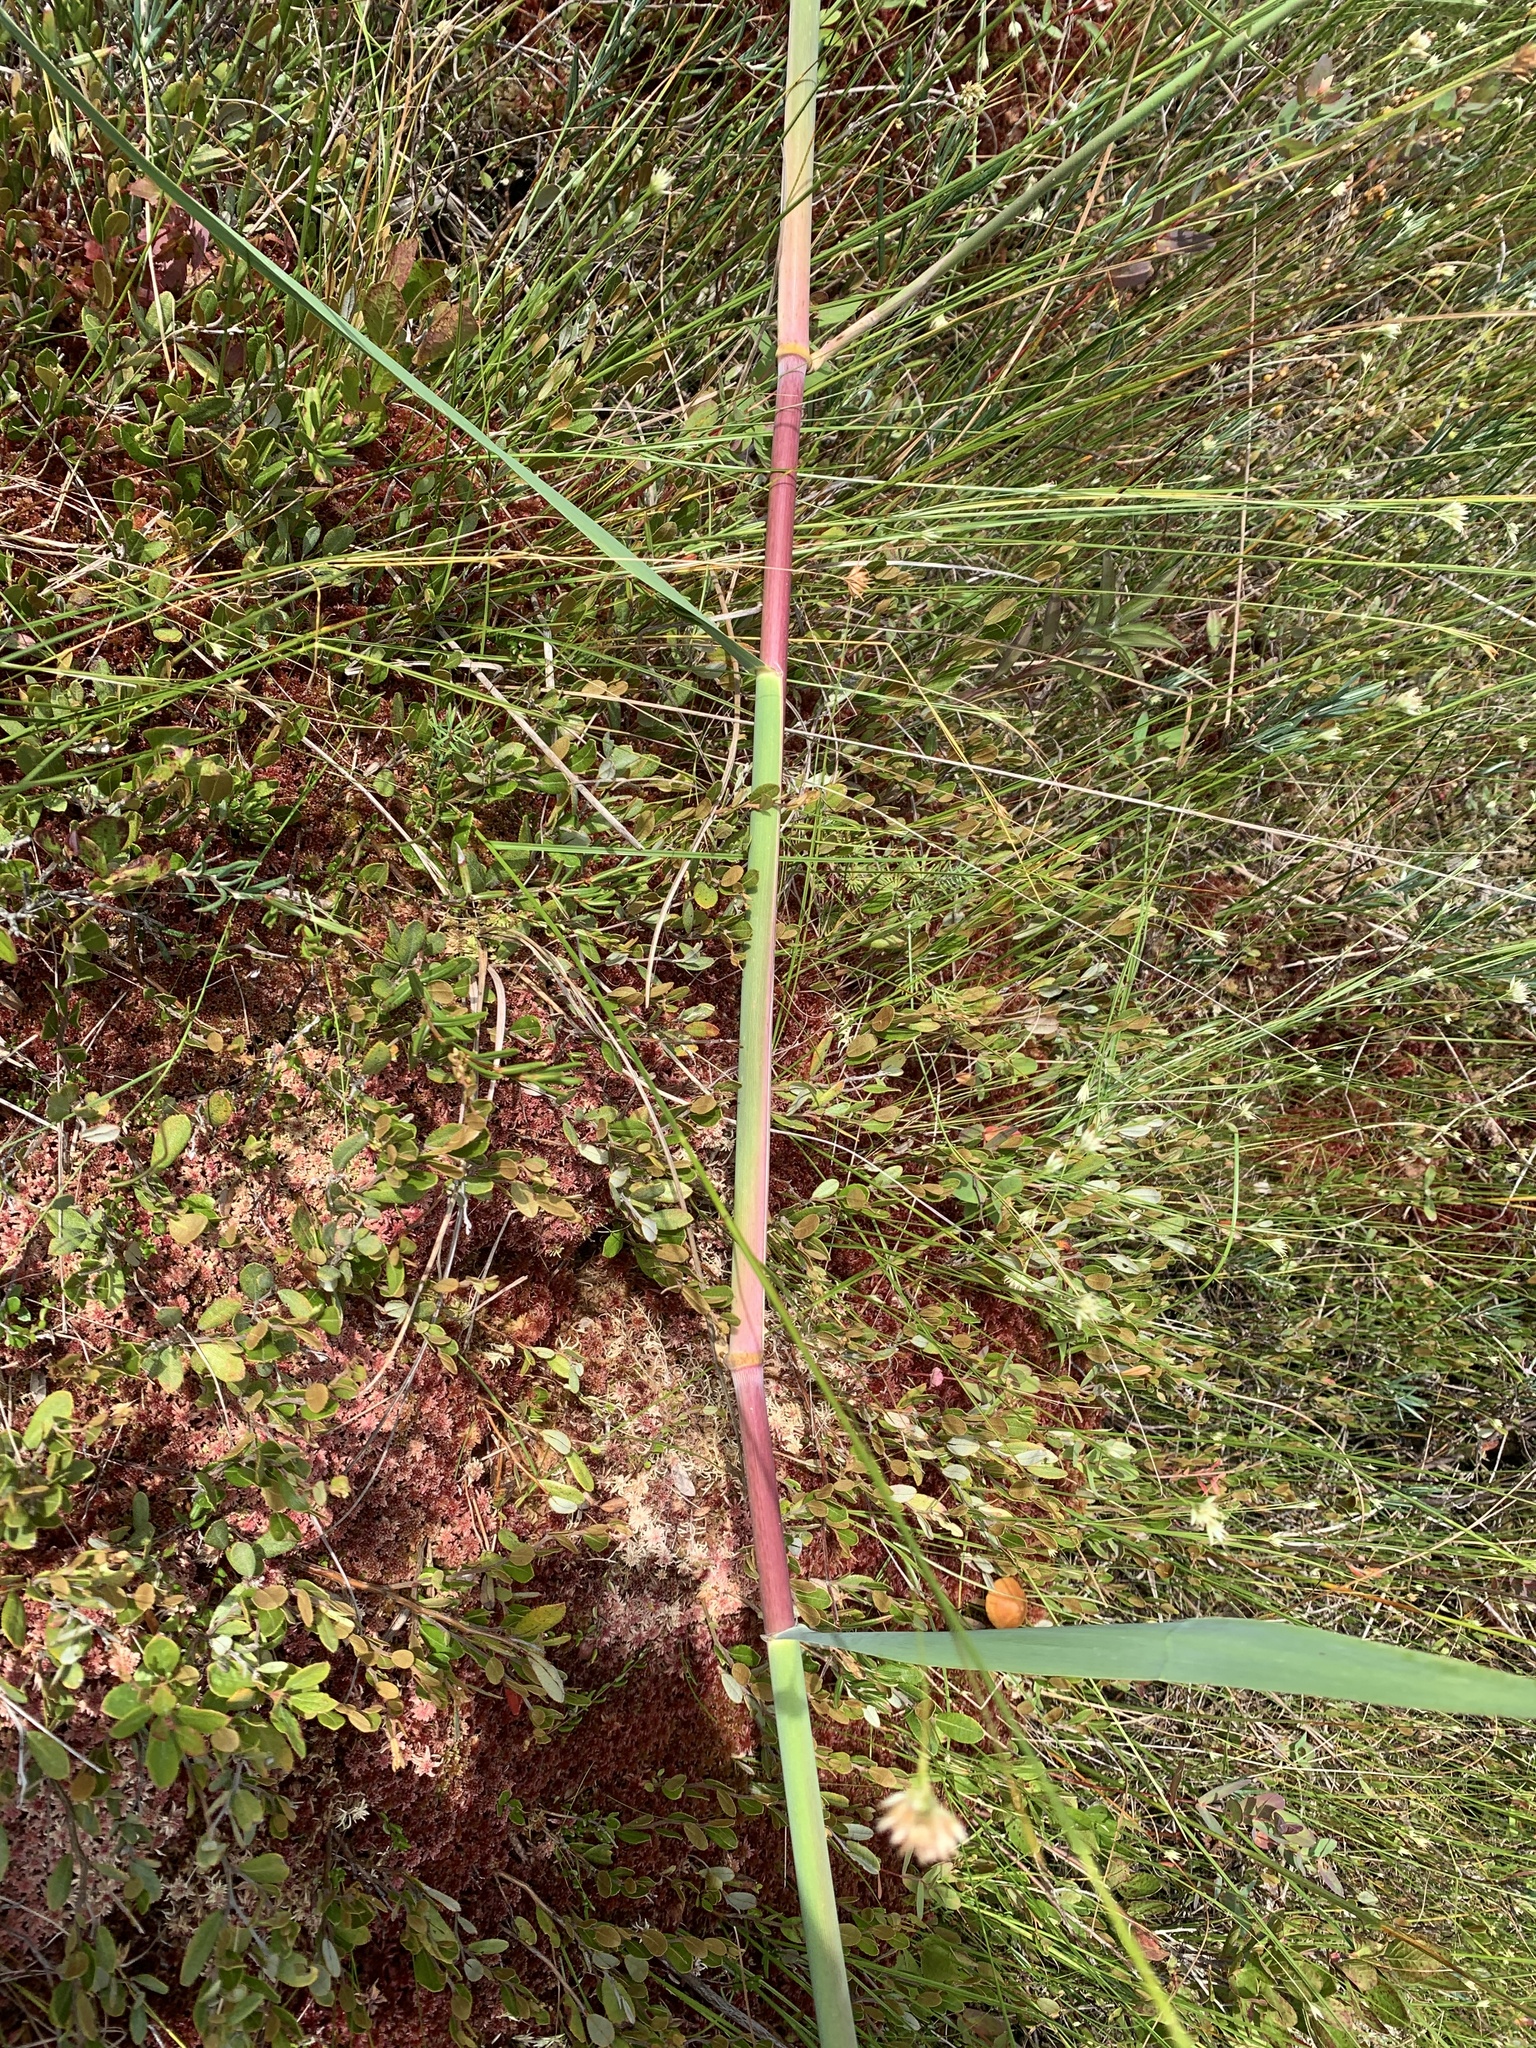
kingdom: Plantae
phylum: Tracheophyta
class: Liliopsida
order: Poales
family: Poaceae
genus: Phragmites
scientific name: Phragmites australis
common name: Common reed
